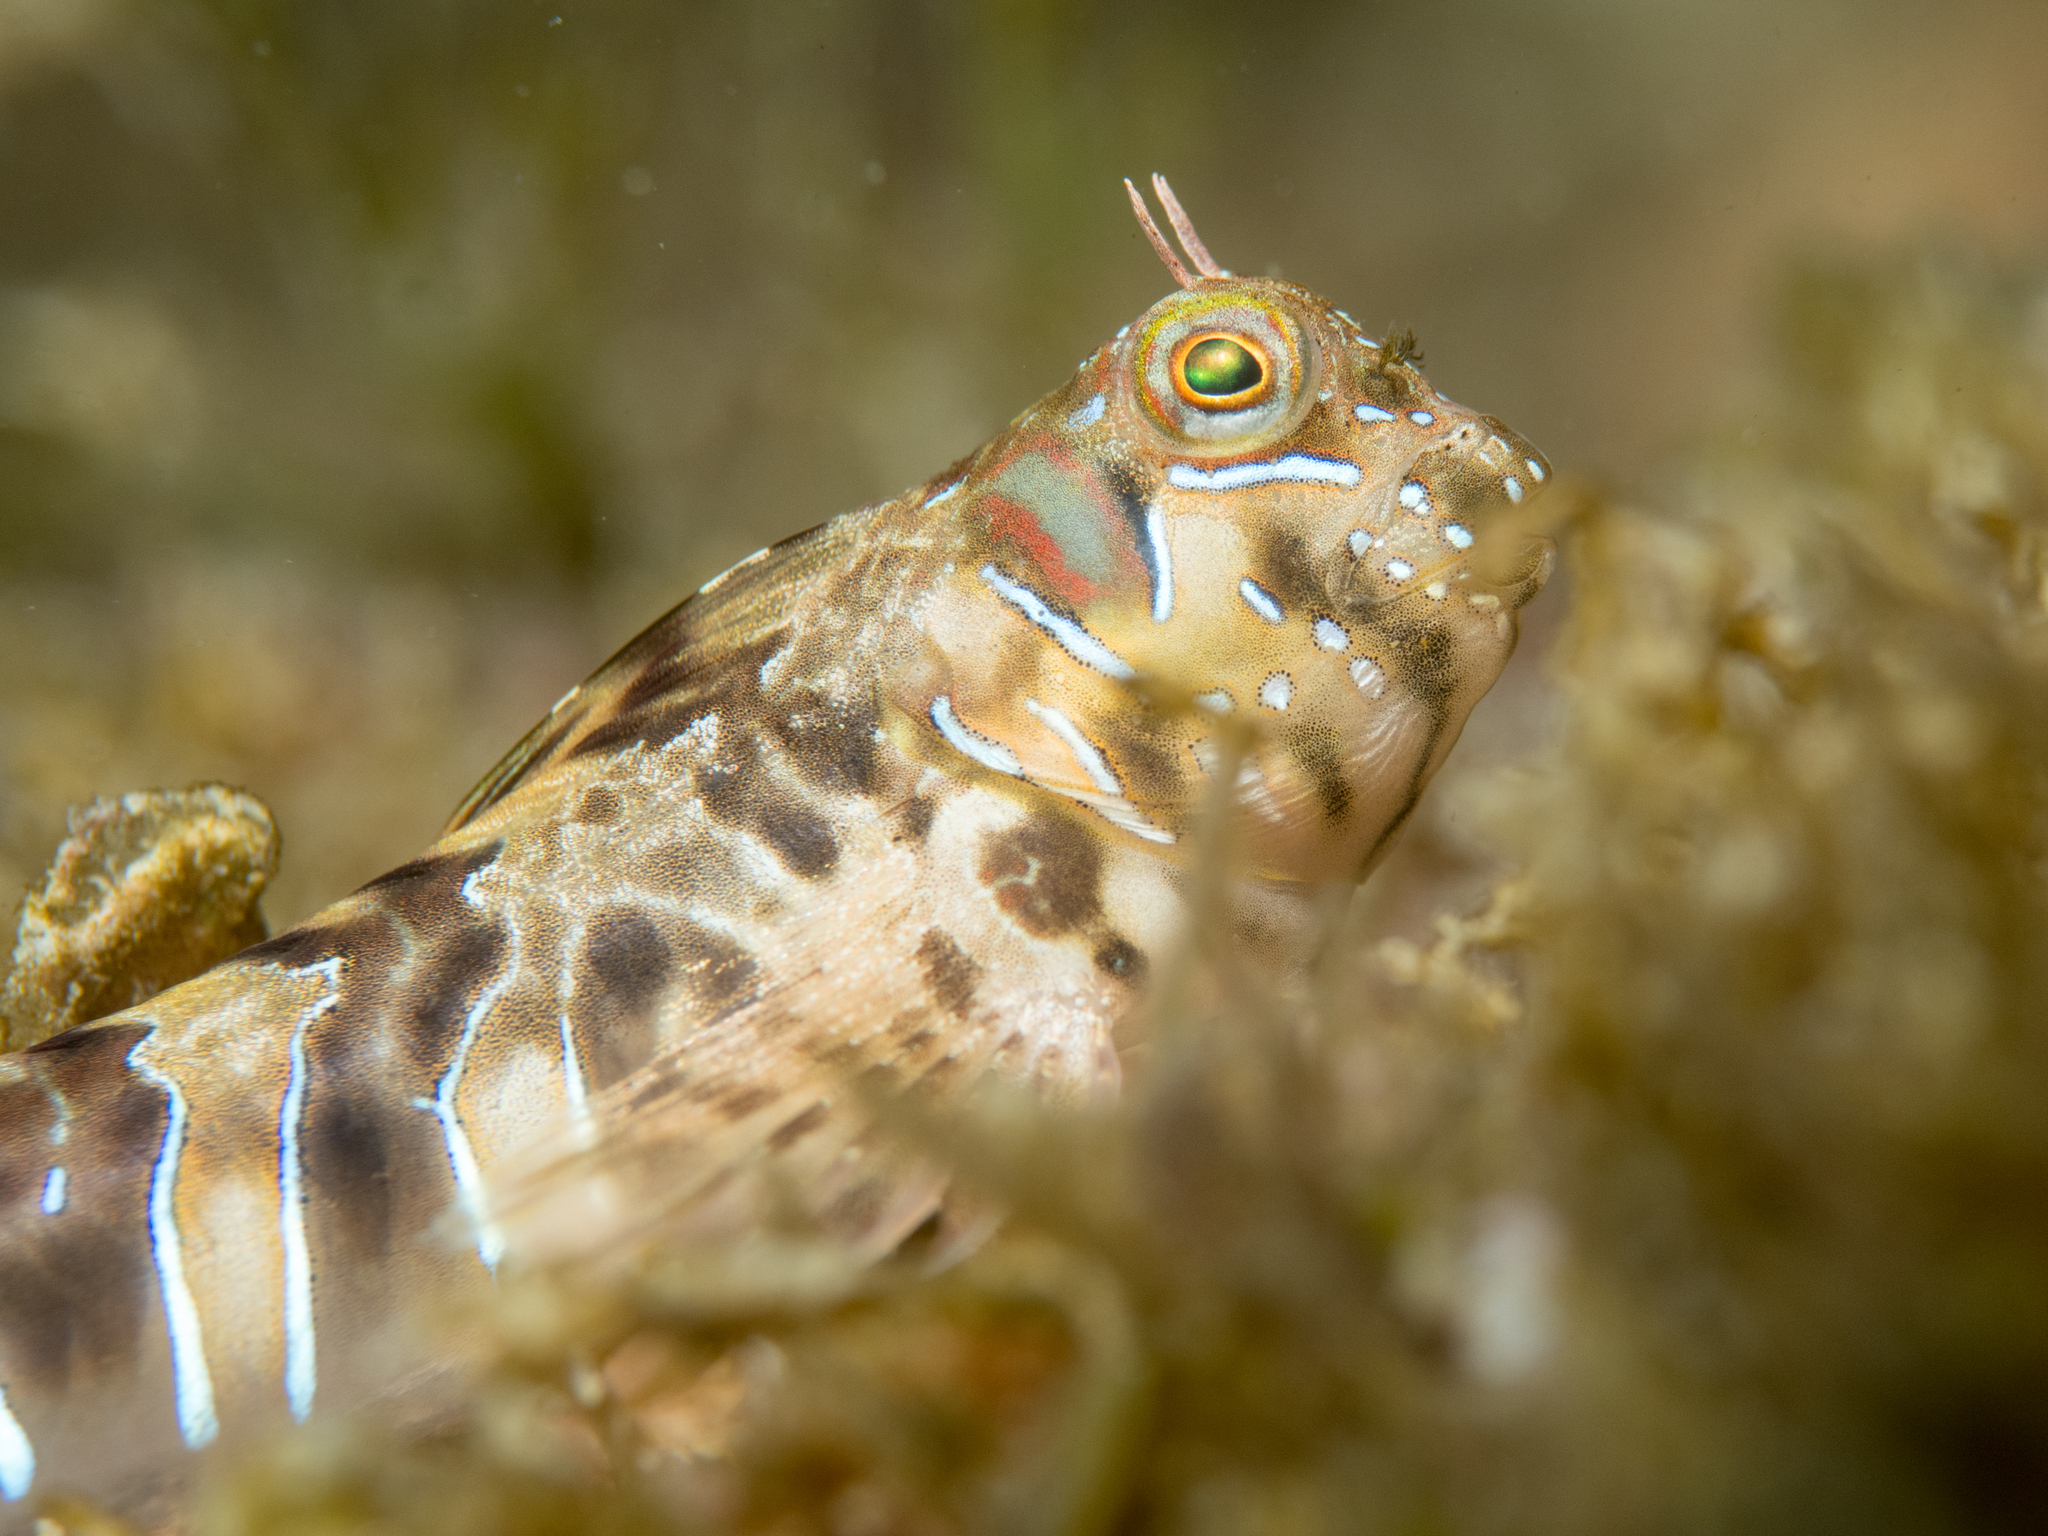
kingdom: Animalia
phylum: Chordata
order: Perciformes
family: Blenniidae
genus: Aidablennius
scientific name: Aidablennius sphynx
